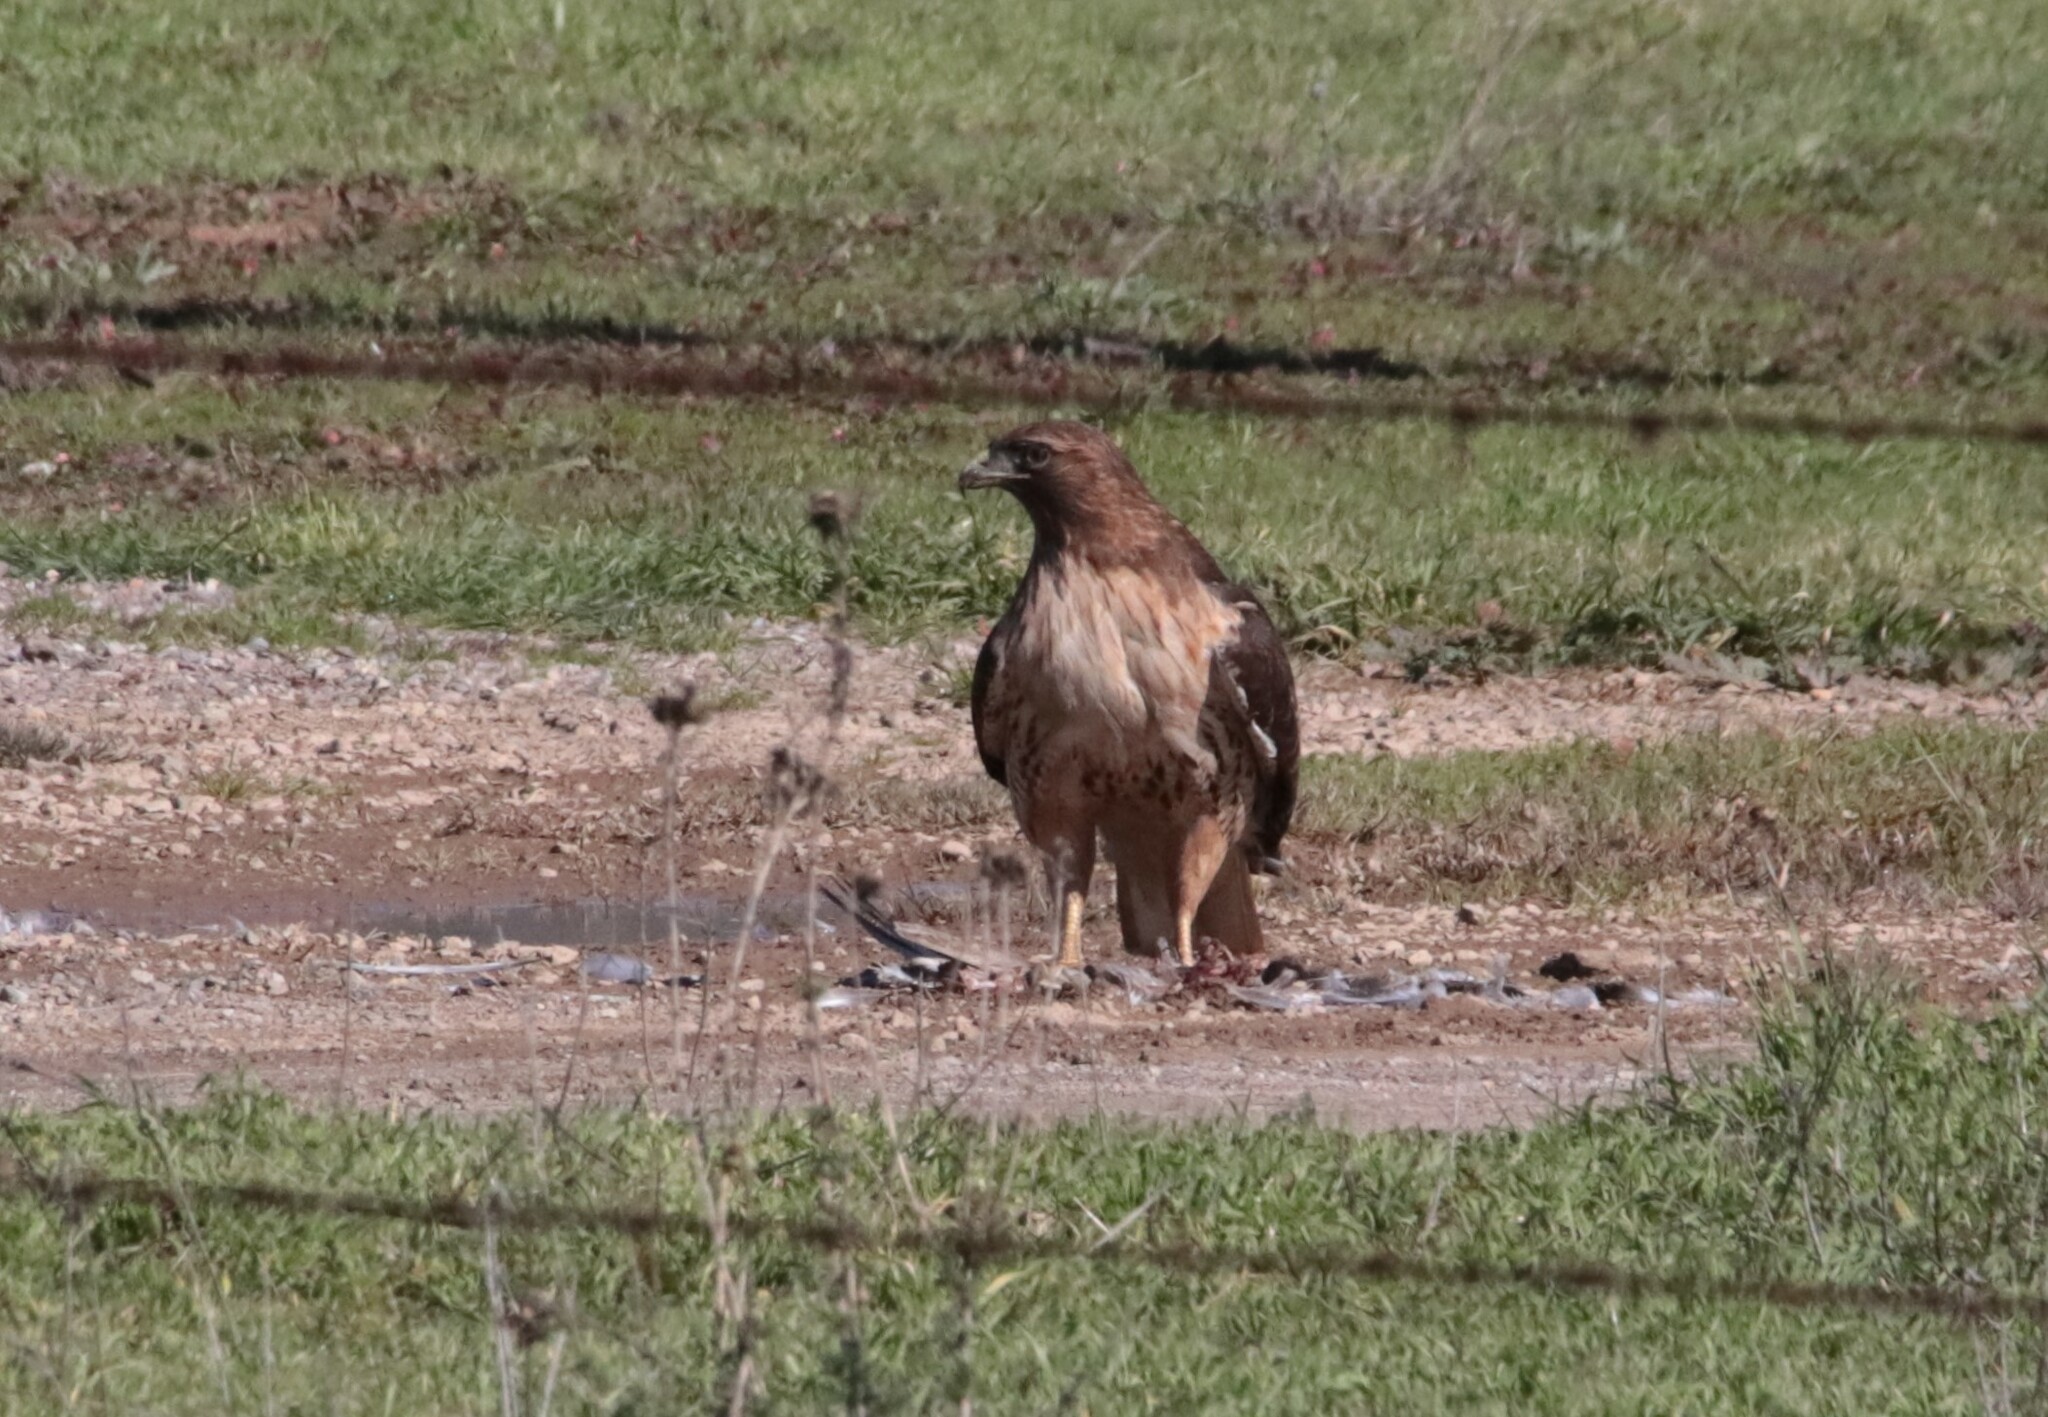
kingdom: Animalia
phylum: Chordata
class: Aves
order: Accipitriformes
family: Accipitridae
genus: Buteo
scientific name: Buteo jamaicensis
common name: Red-tailed hawk
